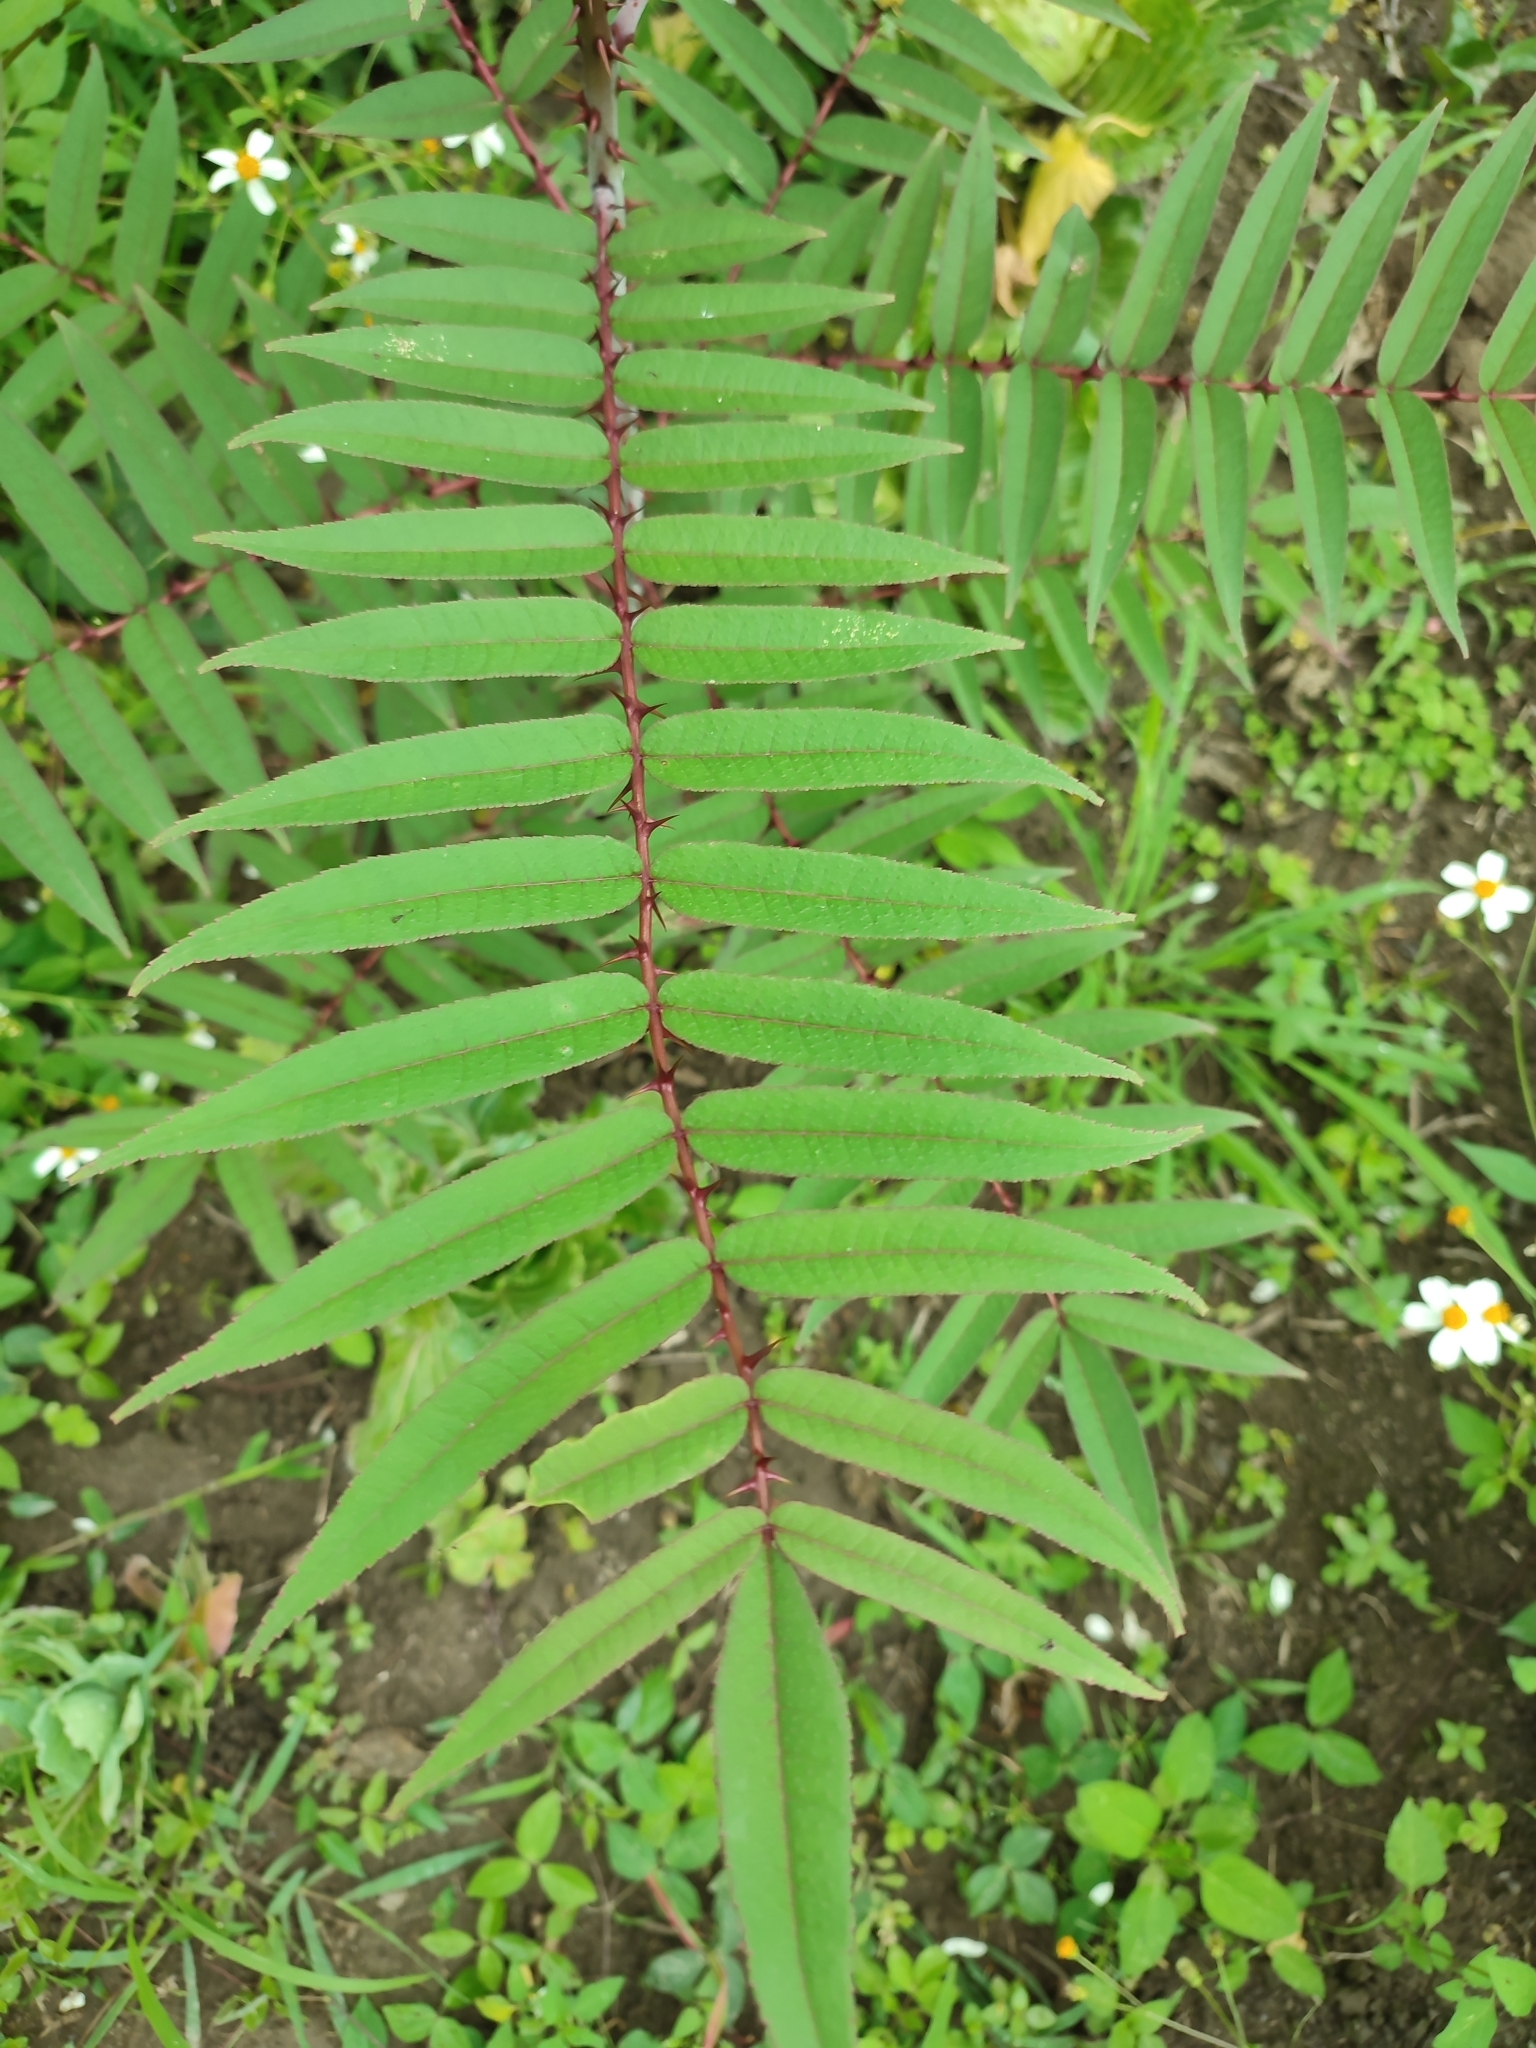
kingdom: Plantae
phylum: Tracheophyta
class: Magnoliopsida
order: Sapindales
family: Rutaceae
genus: Zanthoxylum
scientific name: Zanthoxylum ailanthoides
